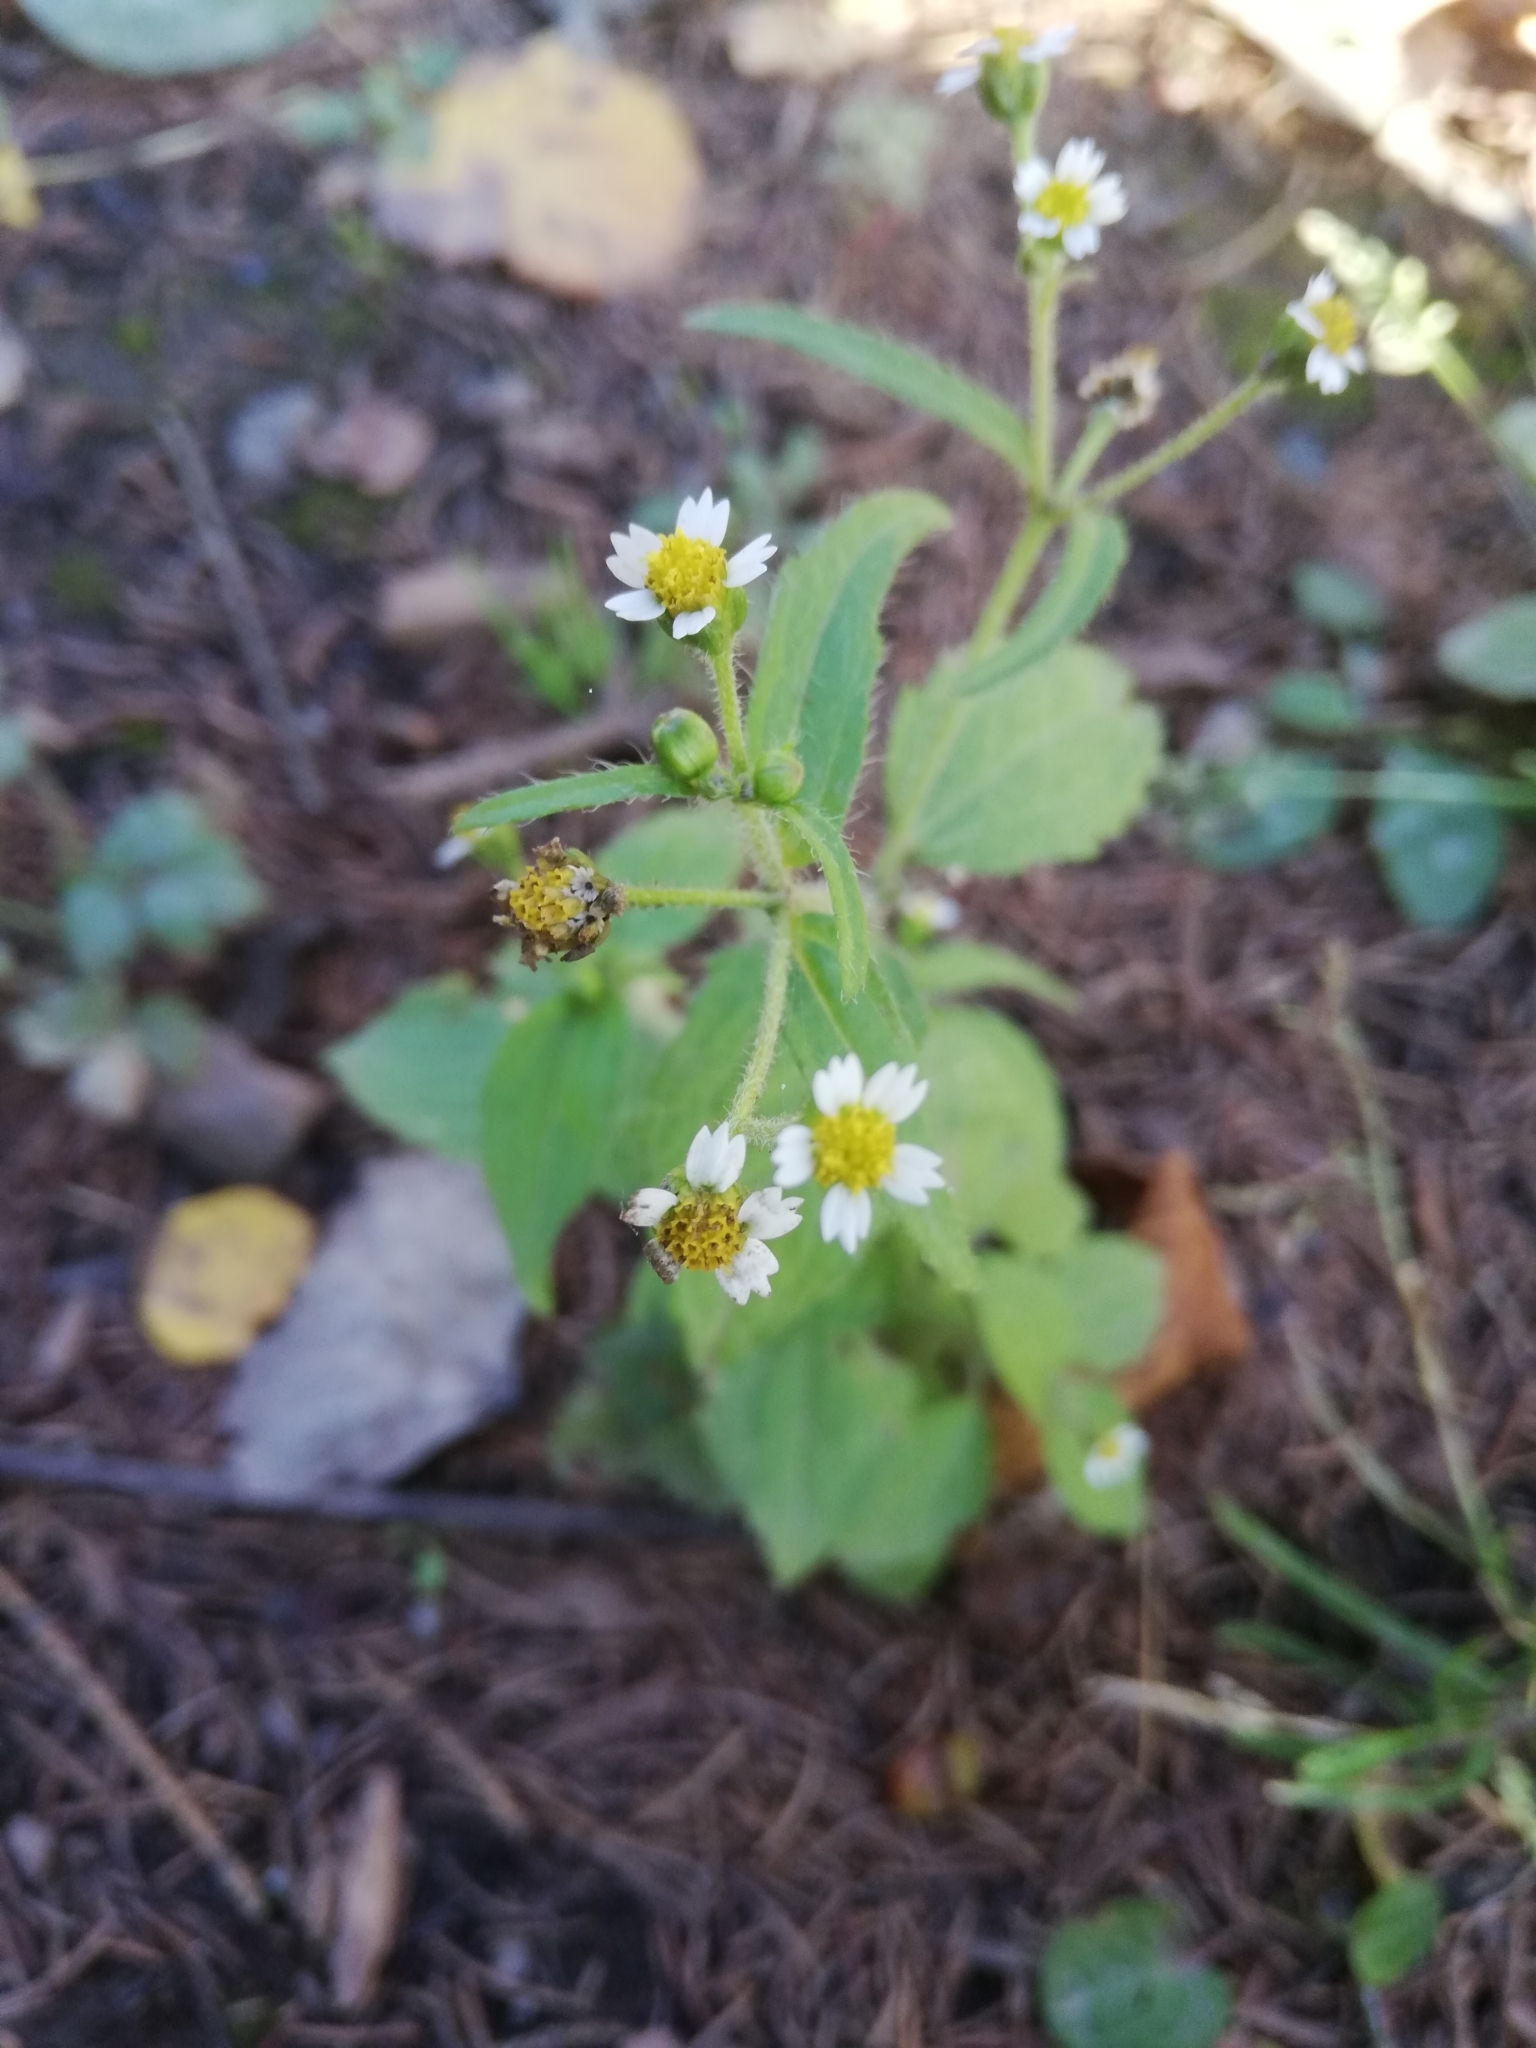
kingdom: Plantae
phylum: Tracheophyta
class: Magnoliopsida
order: Asterales
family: Asteraceae
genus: Galinsoga
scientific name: Galinsoga quadriradiata
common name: Shaggy soldier
